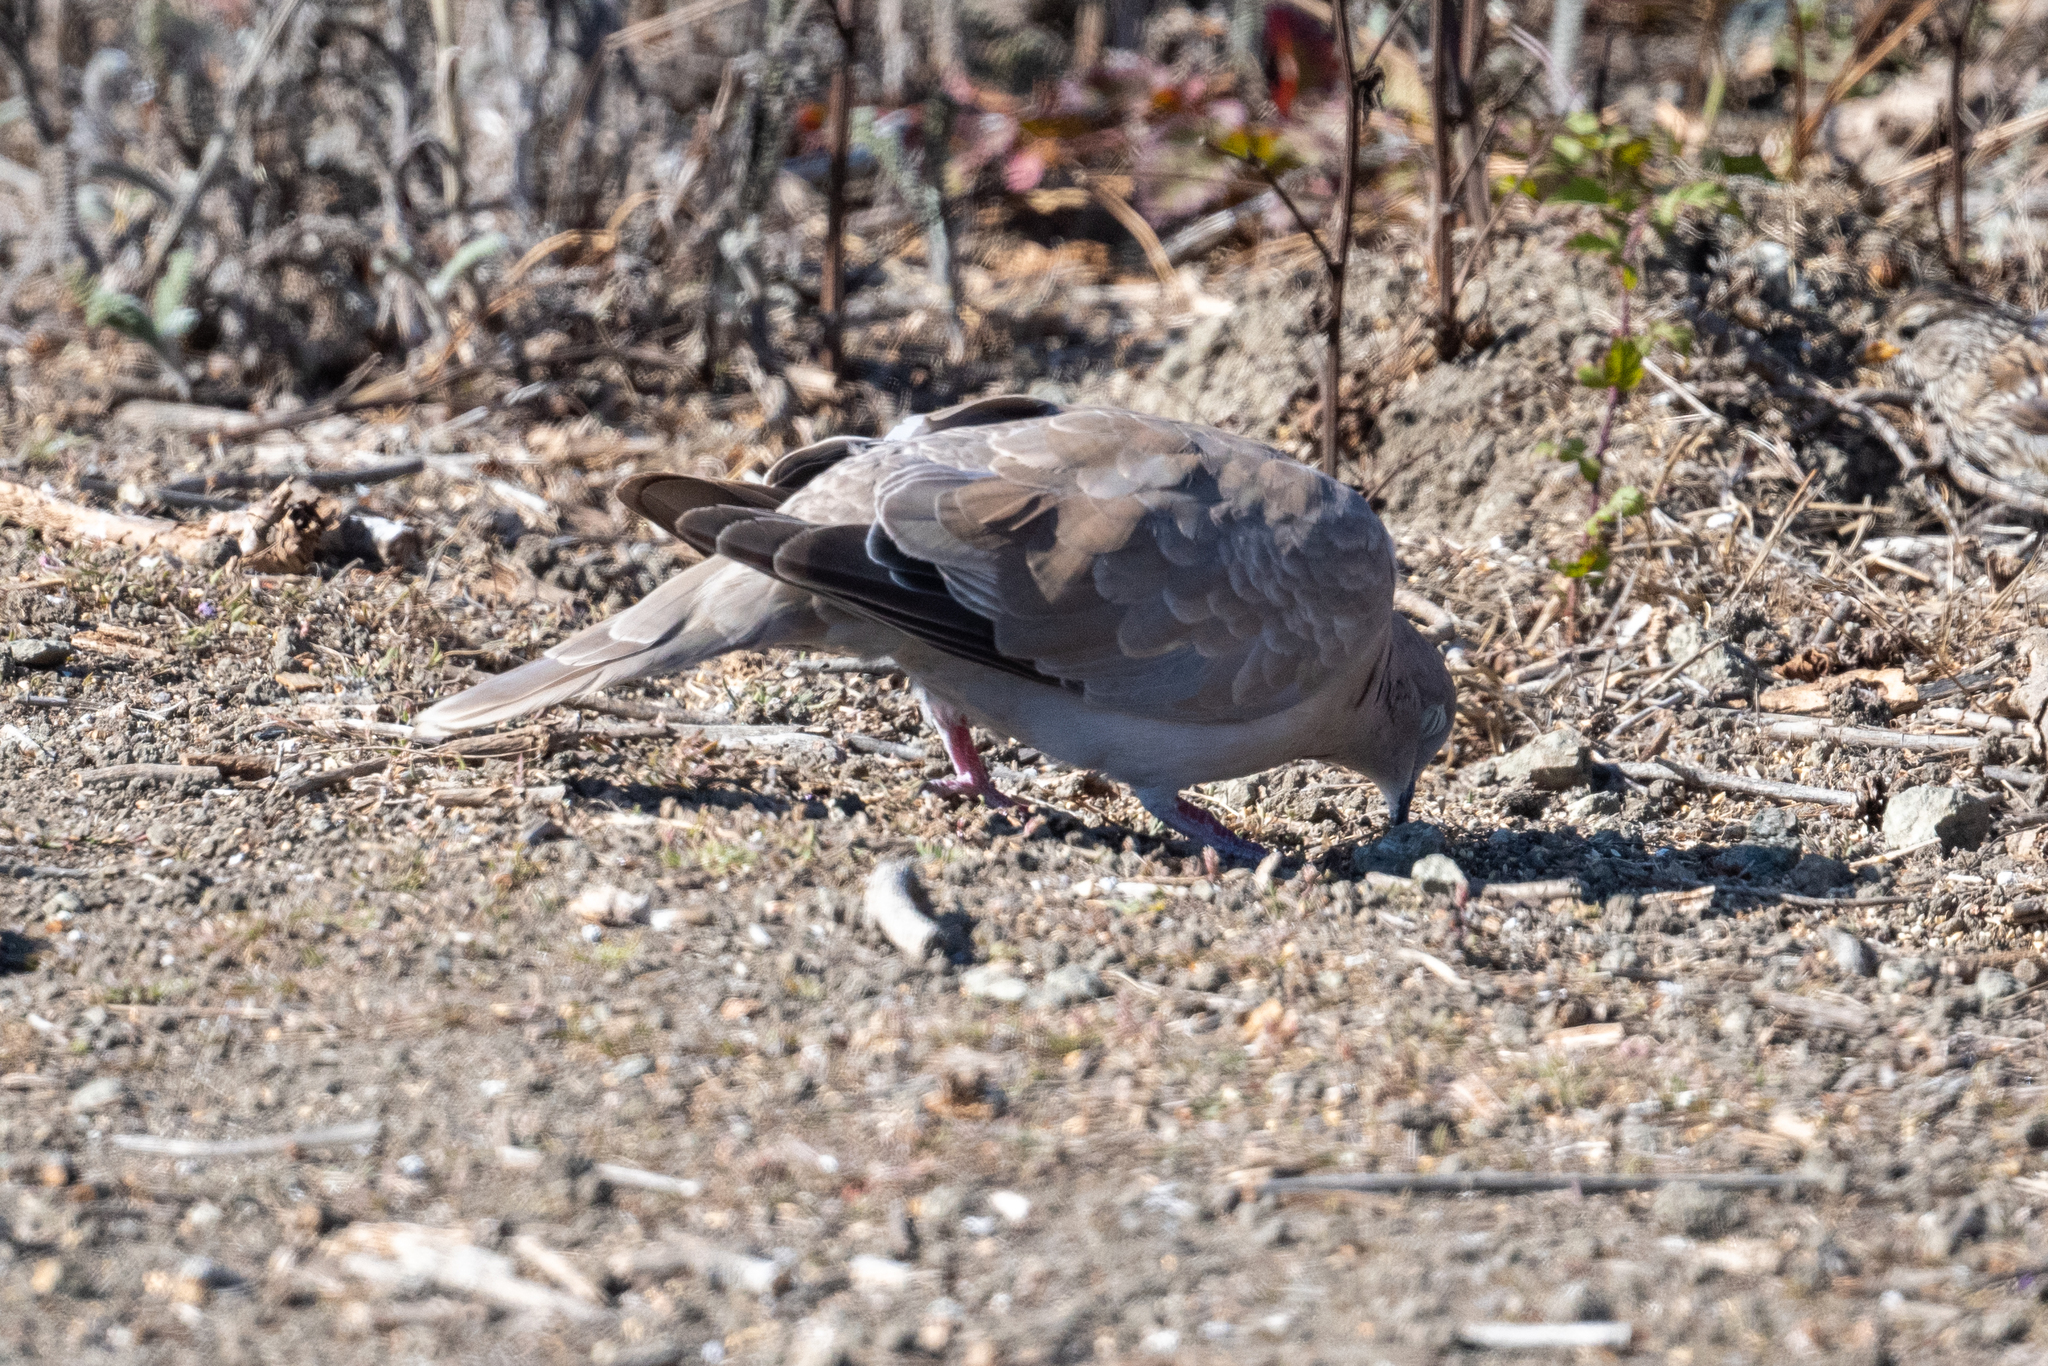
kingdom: Animalia
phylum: Chordata
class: Aves
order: Columbiformes
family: Columbidae
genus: Streptopelia
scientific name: Streptopelia decaocto
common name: Eurasian collared dove
